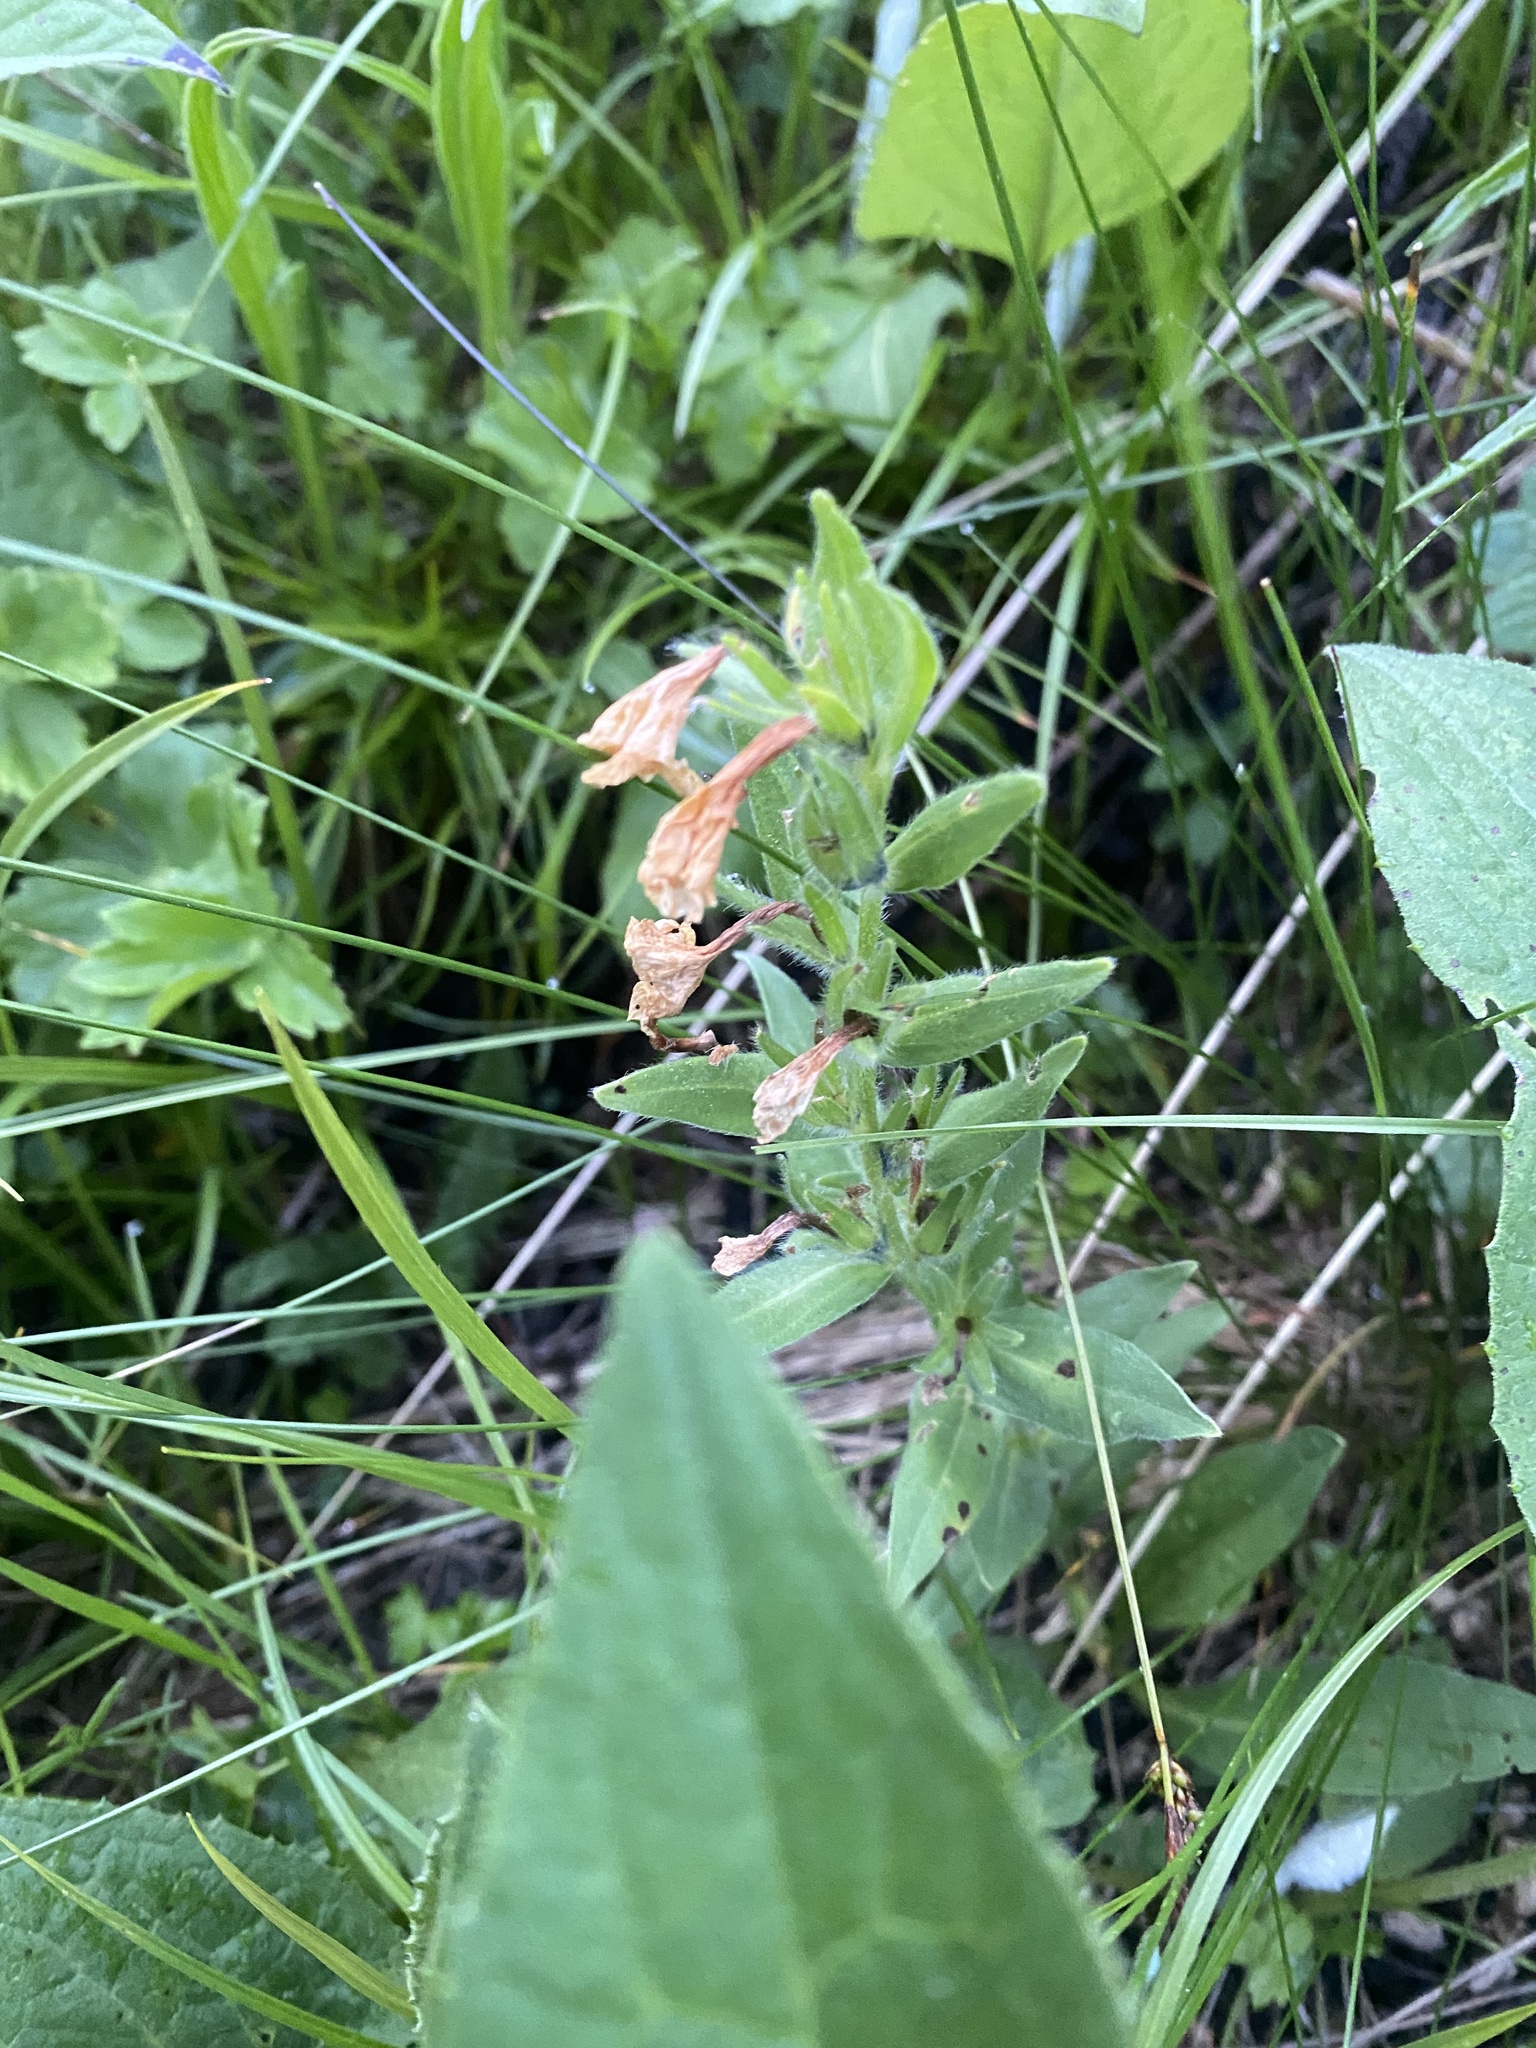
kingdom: Plantae
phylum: Tracheophyta
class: Magnoliopsida
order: Boraginales
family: Boraginaceae
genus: Huynhia
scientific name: Huynhia pulchra
